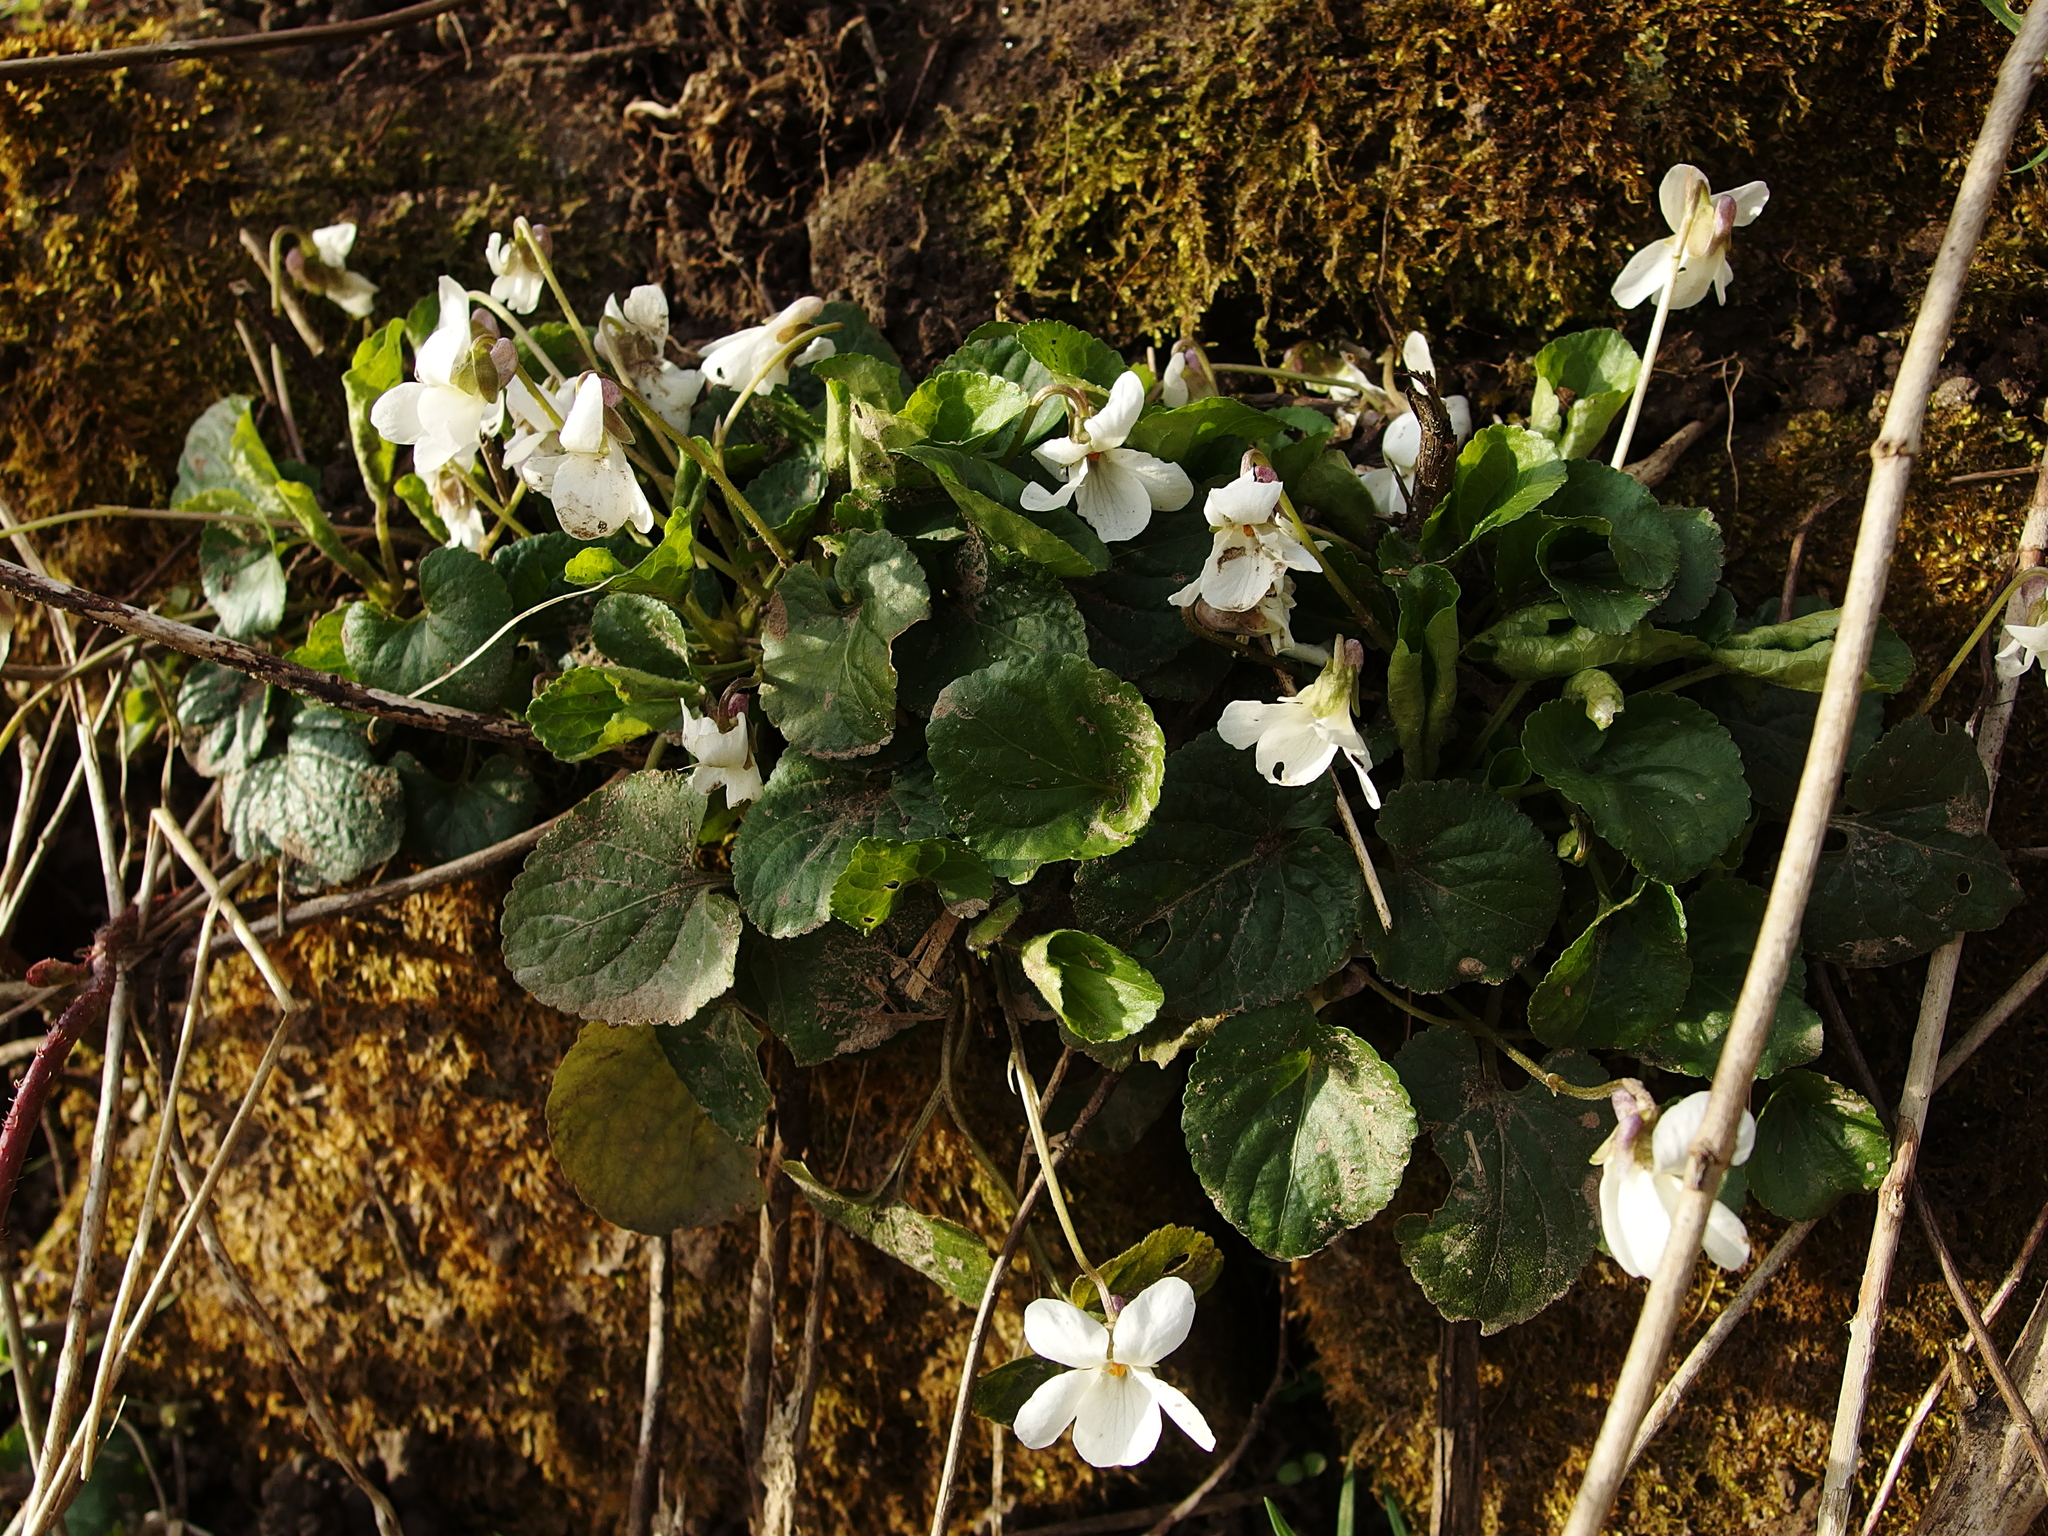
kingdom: Plantae
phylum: Tracheophyta
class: Magnoliopsida
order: Malpighiales
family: Violaceae
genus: Viola
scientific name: Viola odorata
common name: Sweet violet
